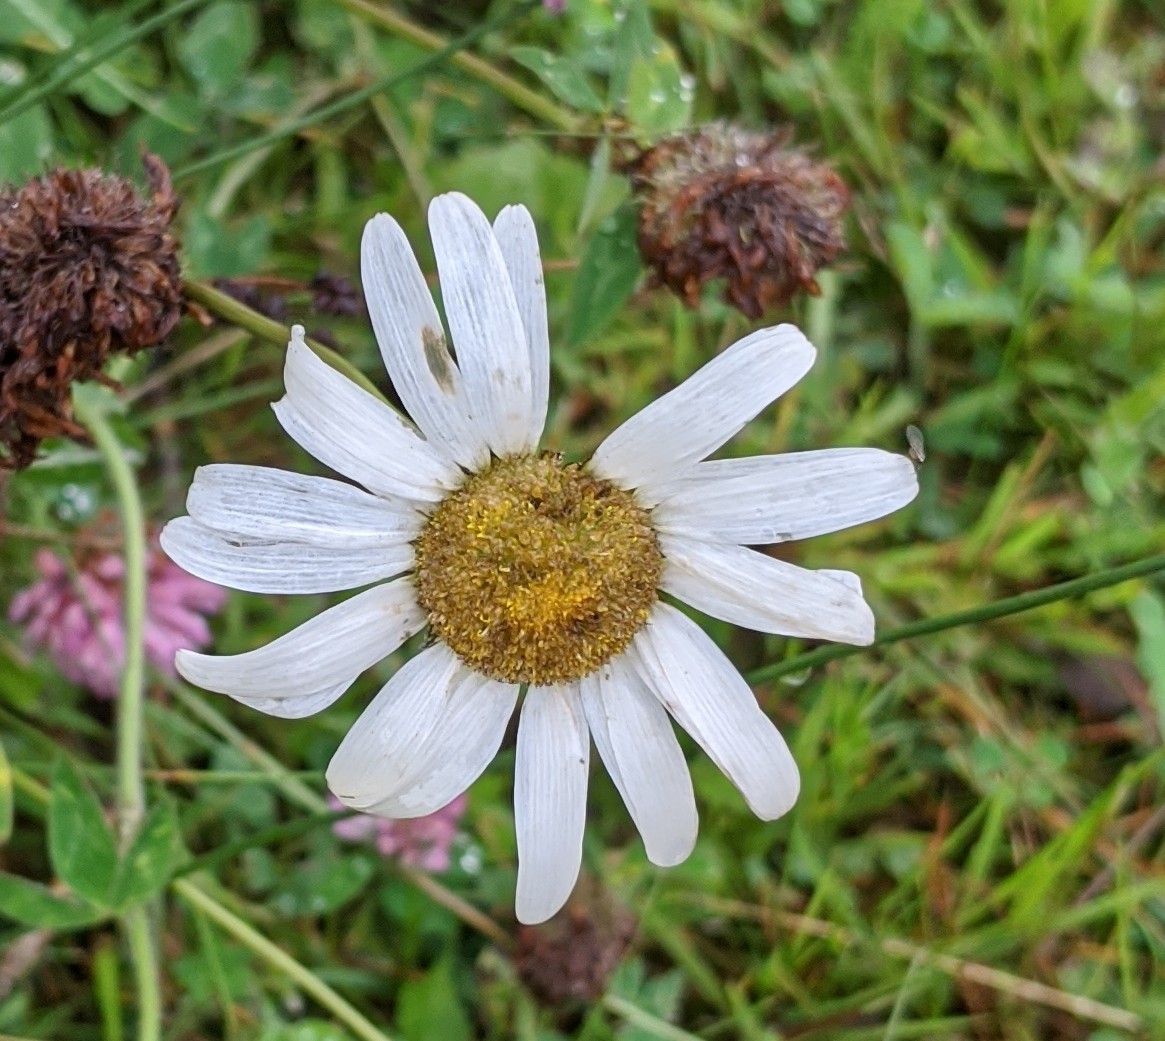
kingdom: Plantae
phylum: Tracheophyta
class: Magnoliopsida
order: Asterales
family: Asteraceae
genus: Leucanthemum
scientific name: Leucanthemum vulgare
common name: Oxeye daisy
